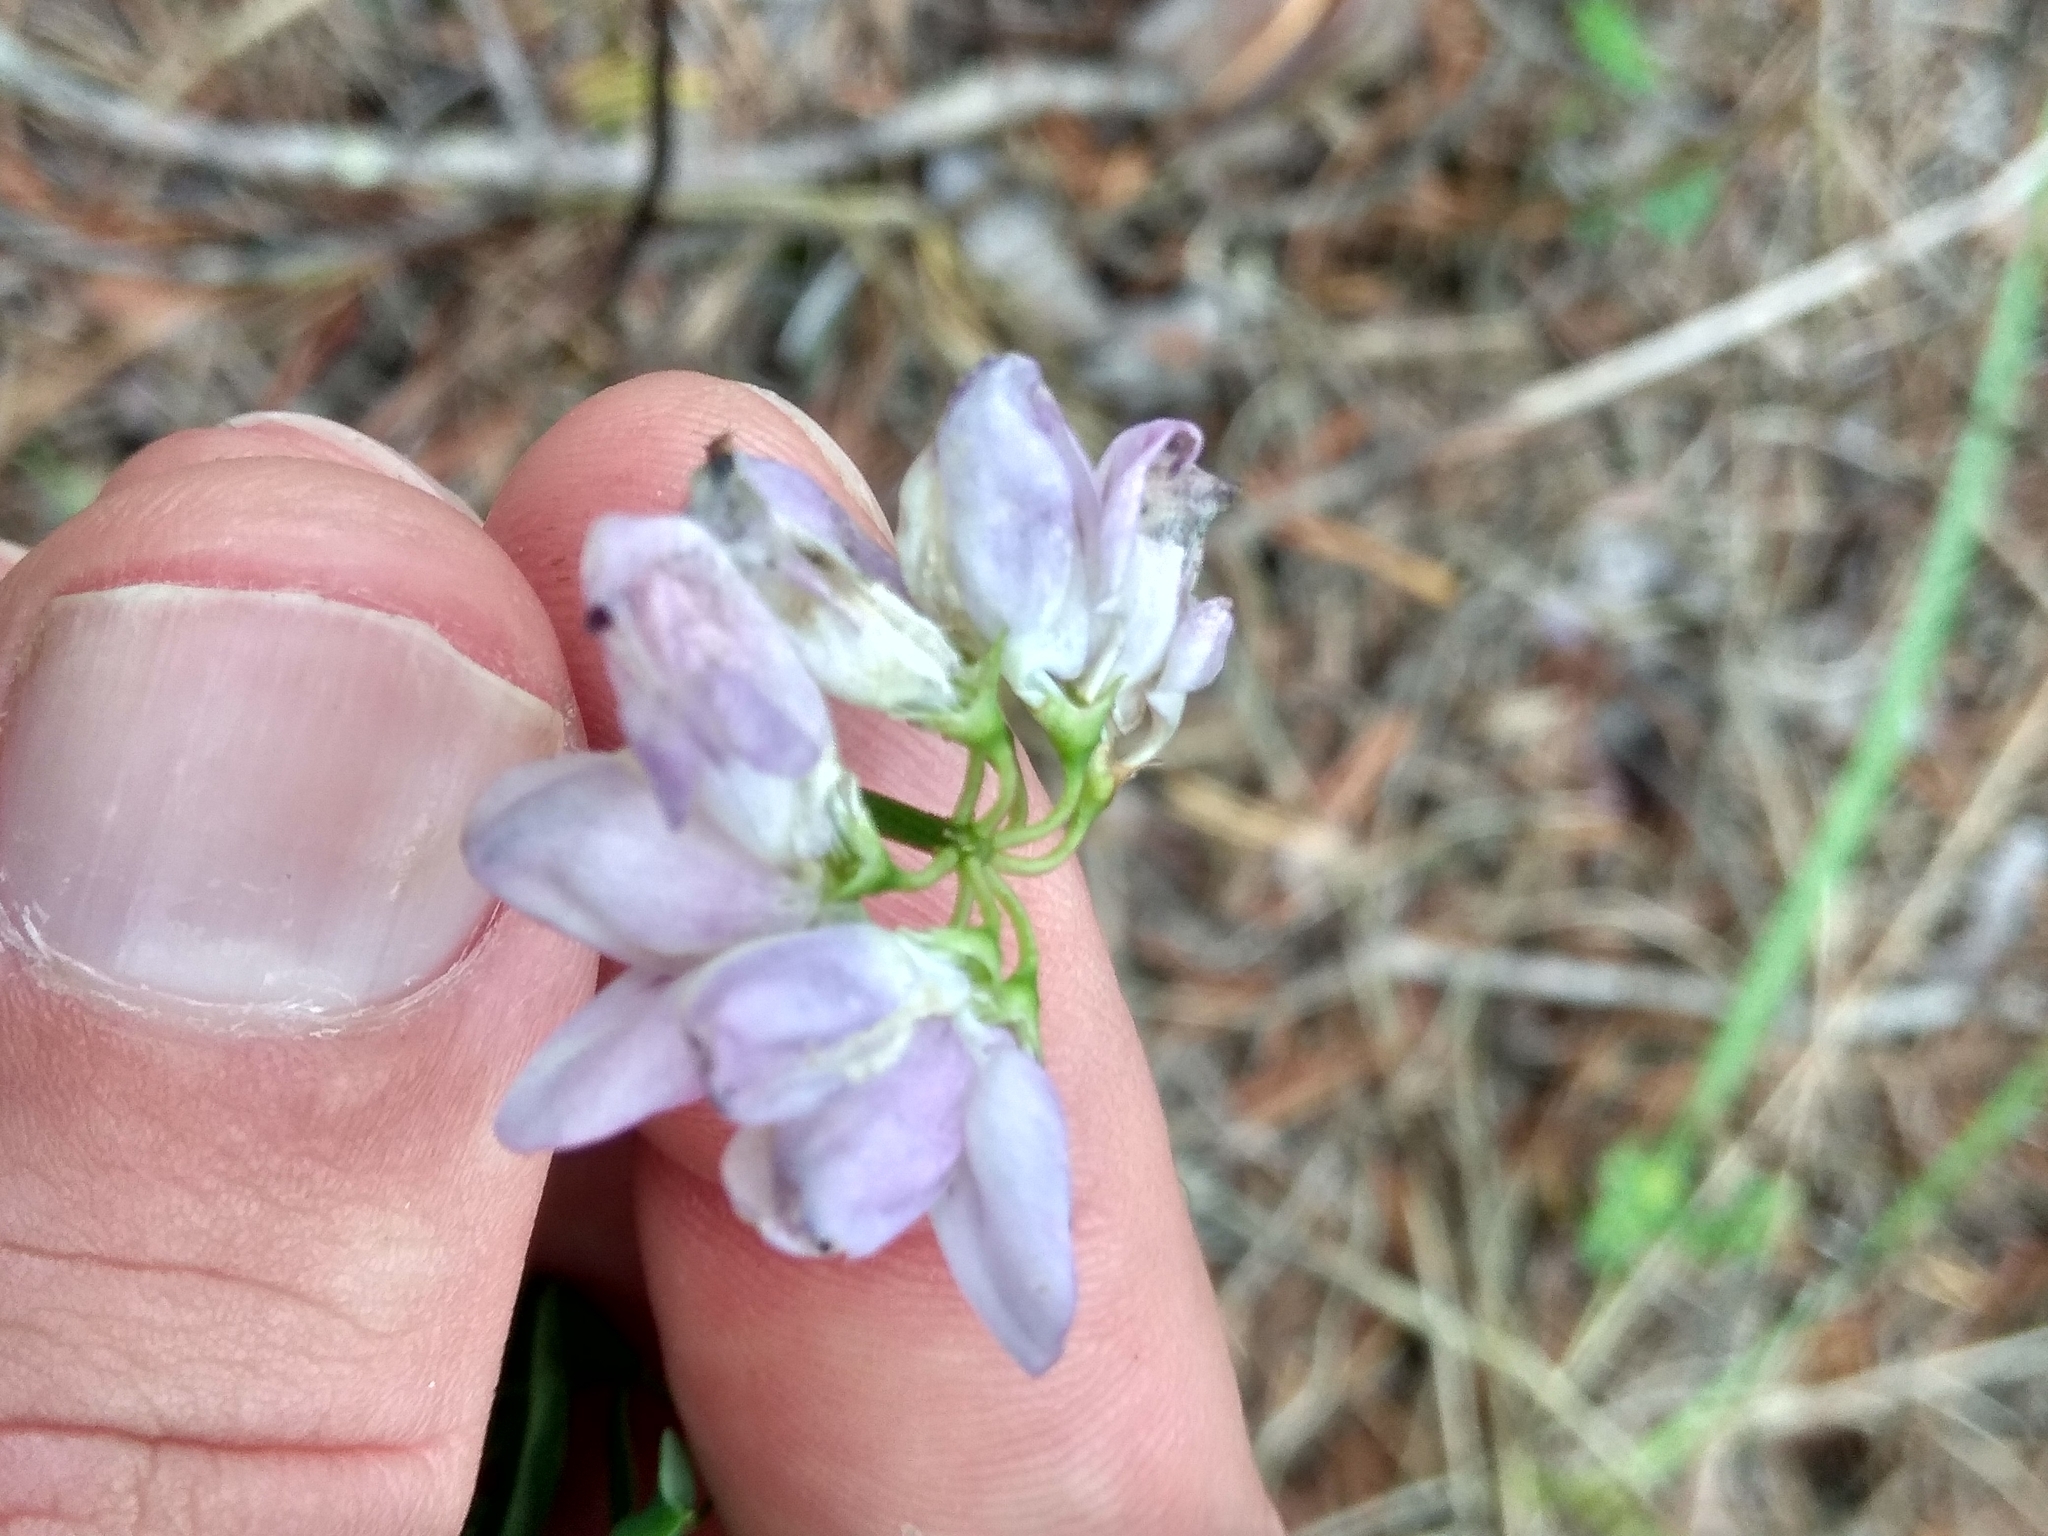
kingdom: Plantae
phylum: Tracheophyta
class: Magnoliopsida
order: Fabales
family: Fabaceae
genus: Coronilla
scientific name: Coronilla varia
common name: Crownvetch
